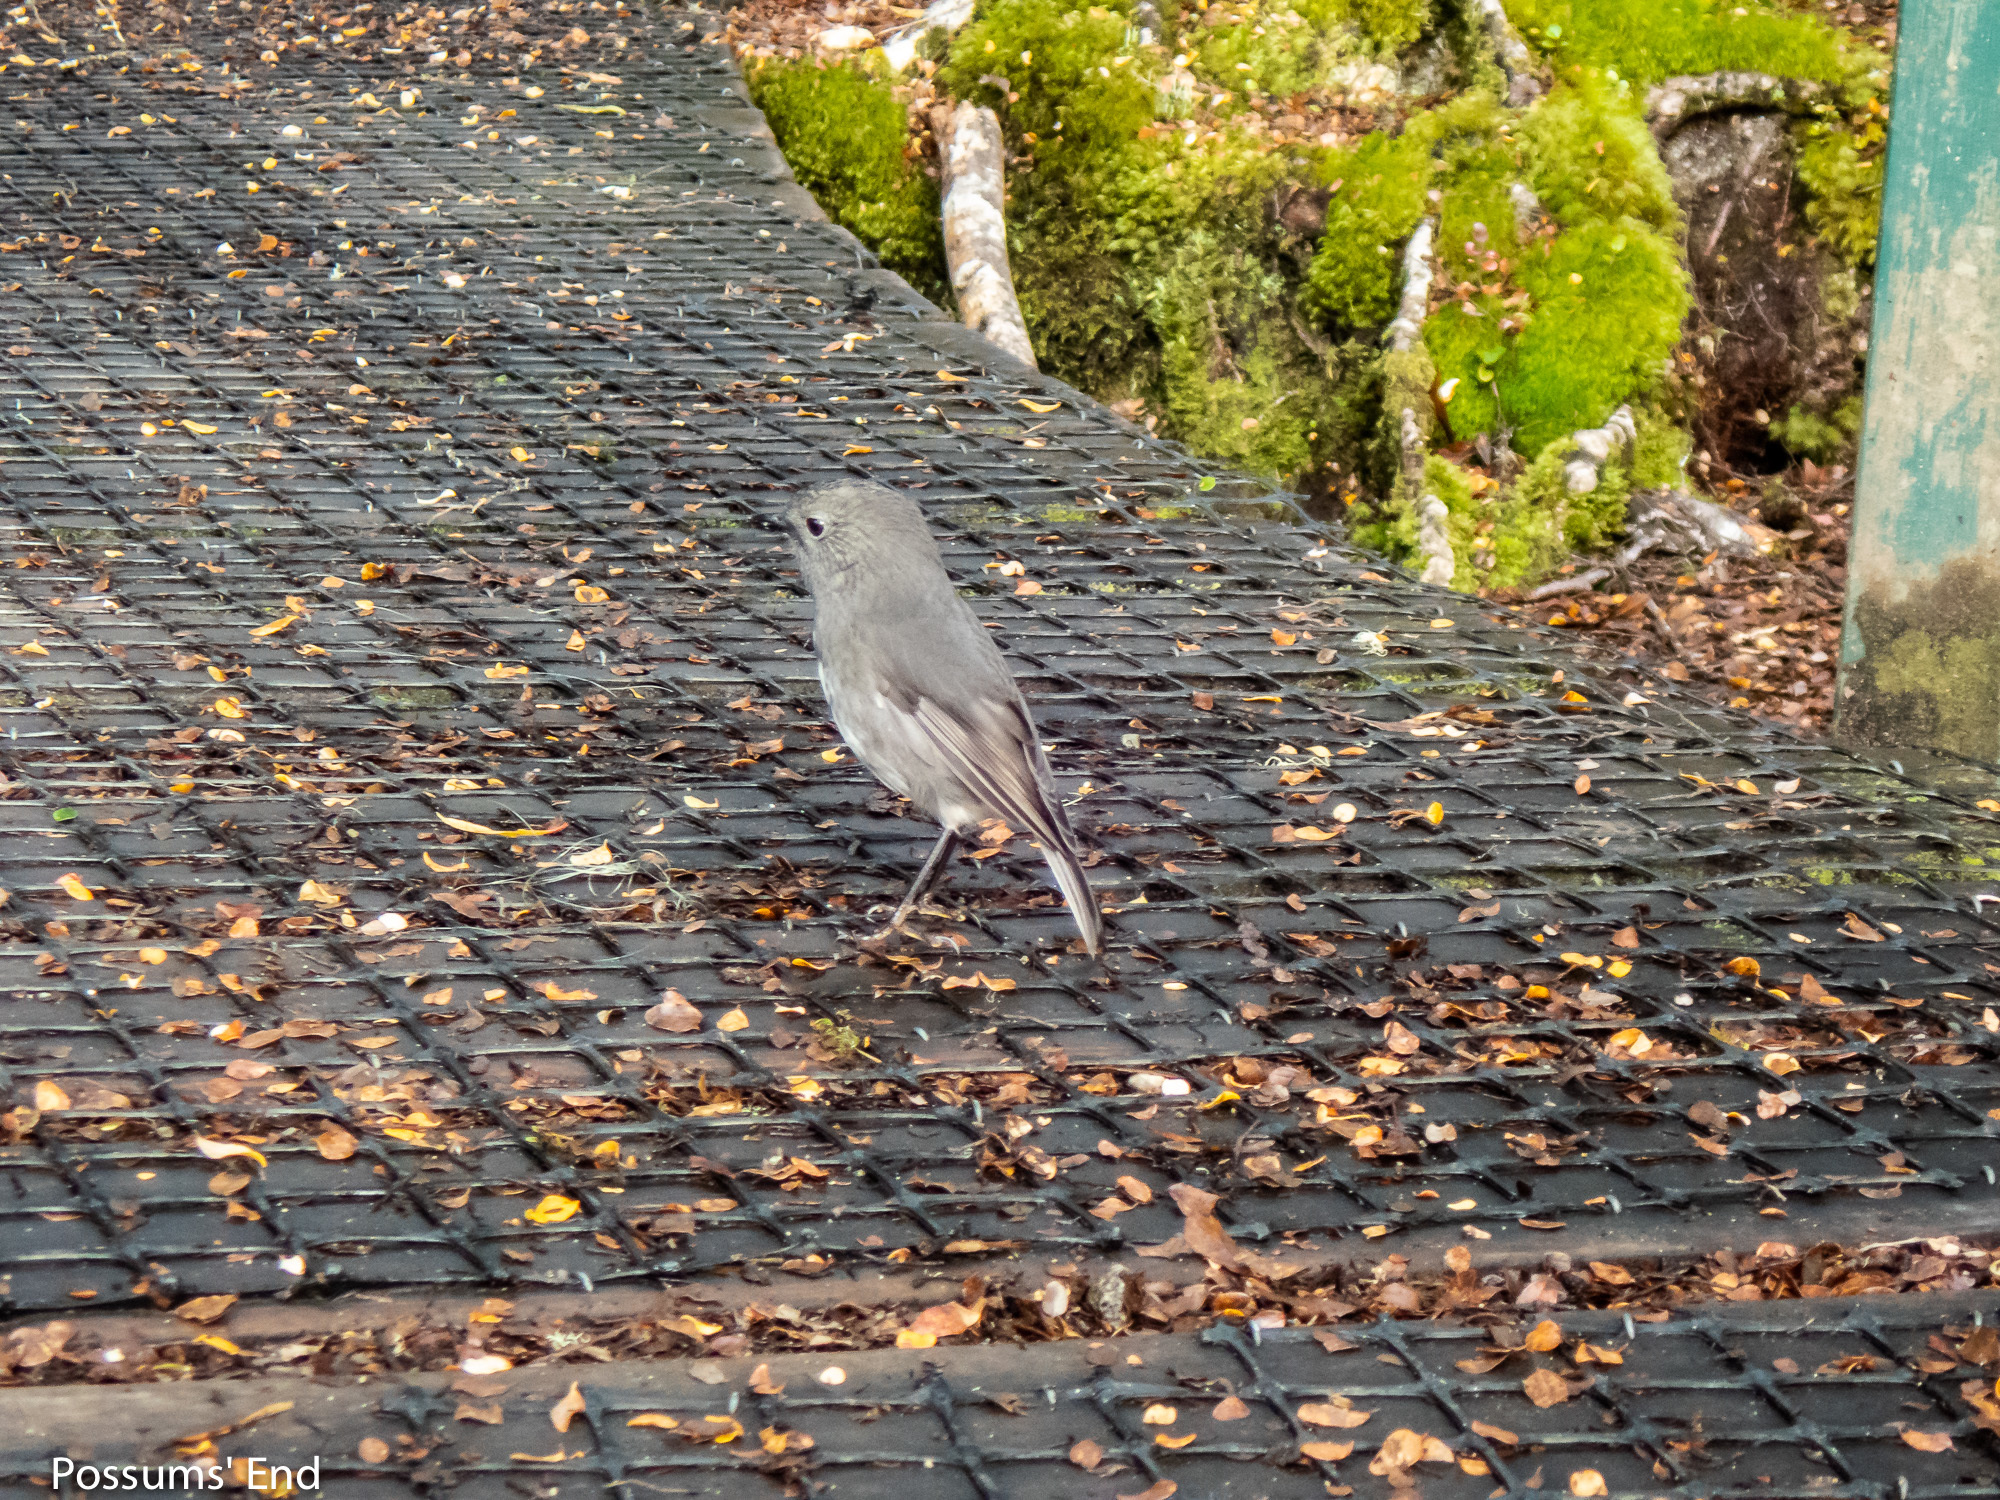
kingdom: Animalia
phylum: Chordata
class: Aves
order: Passeriformes
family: Petroicidae
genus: Petroica
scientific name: Petroica australis
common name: New zealand robin
